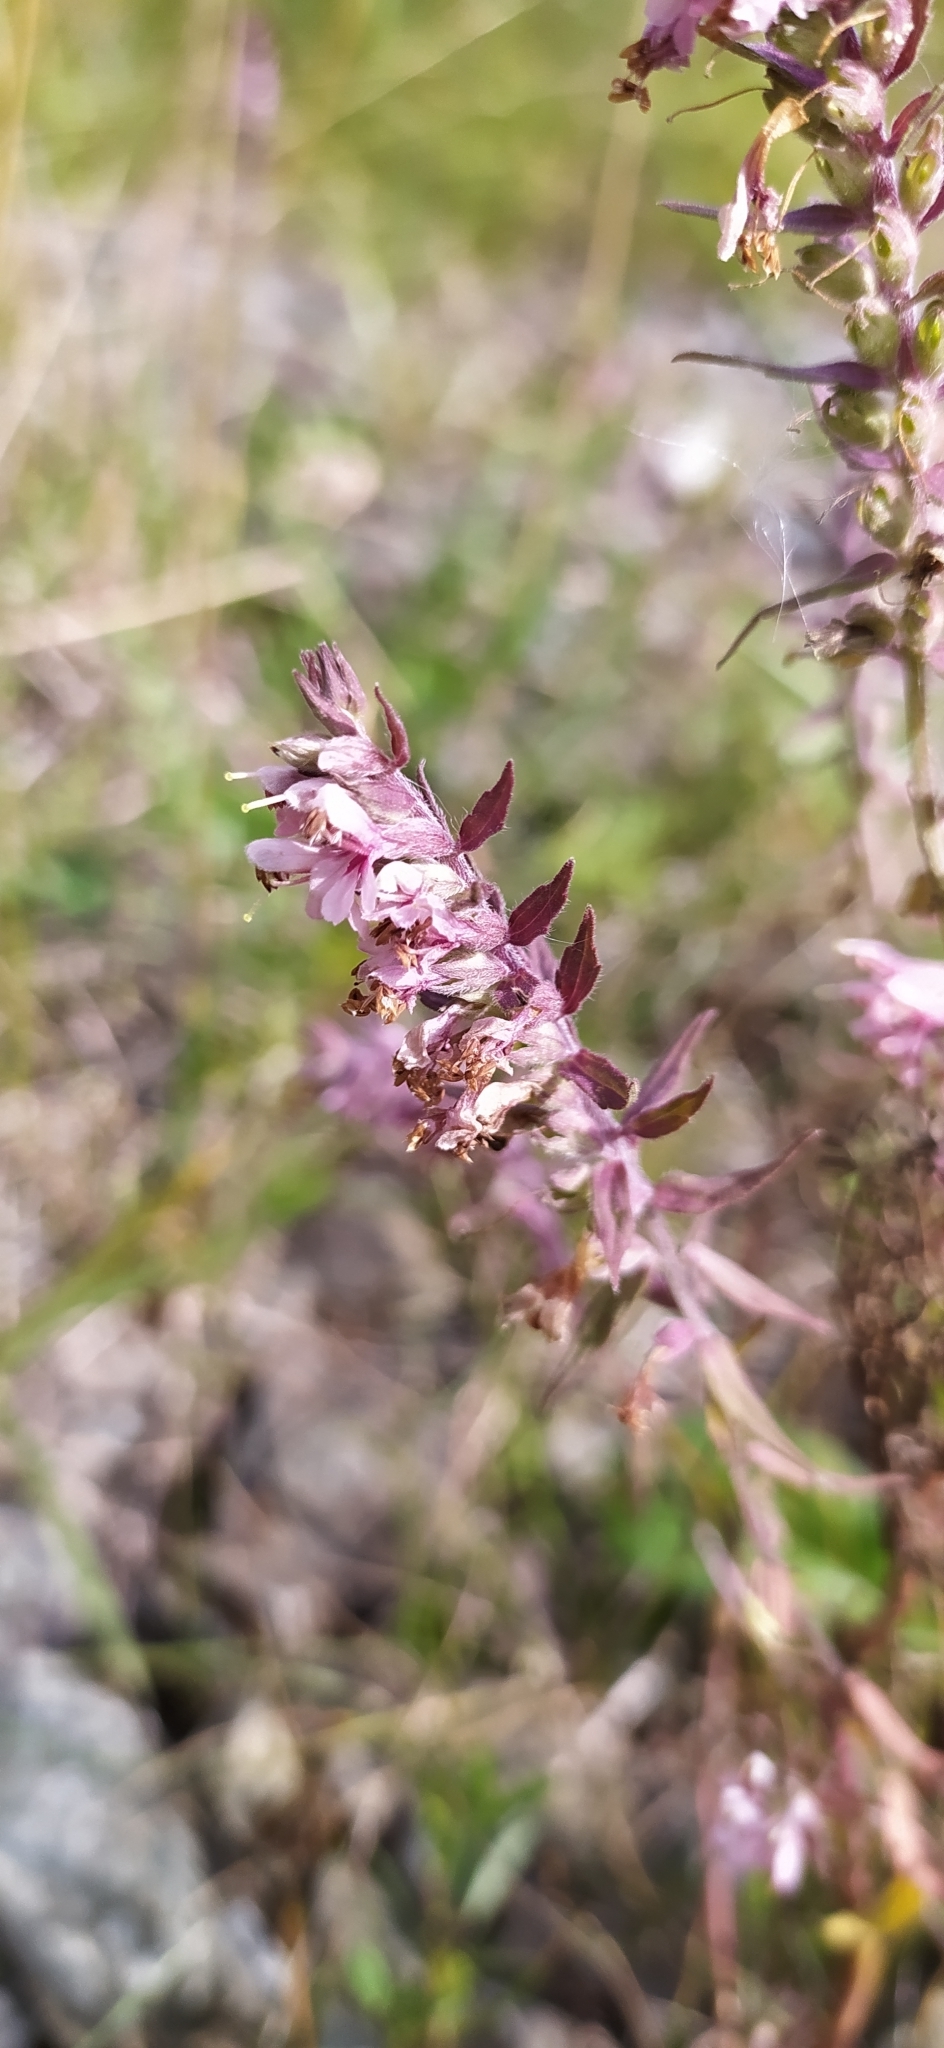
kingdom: Plantae
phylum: Tracheophyta
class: Magnoliopsida
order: Lamiales
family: Orobanchaceae
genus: Odontites
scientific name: Odontites vulgaris
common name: Broomrape
